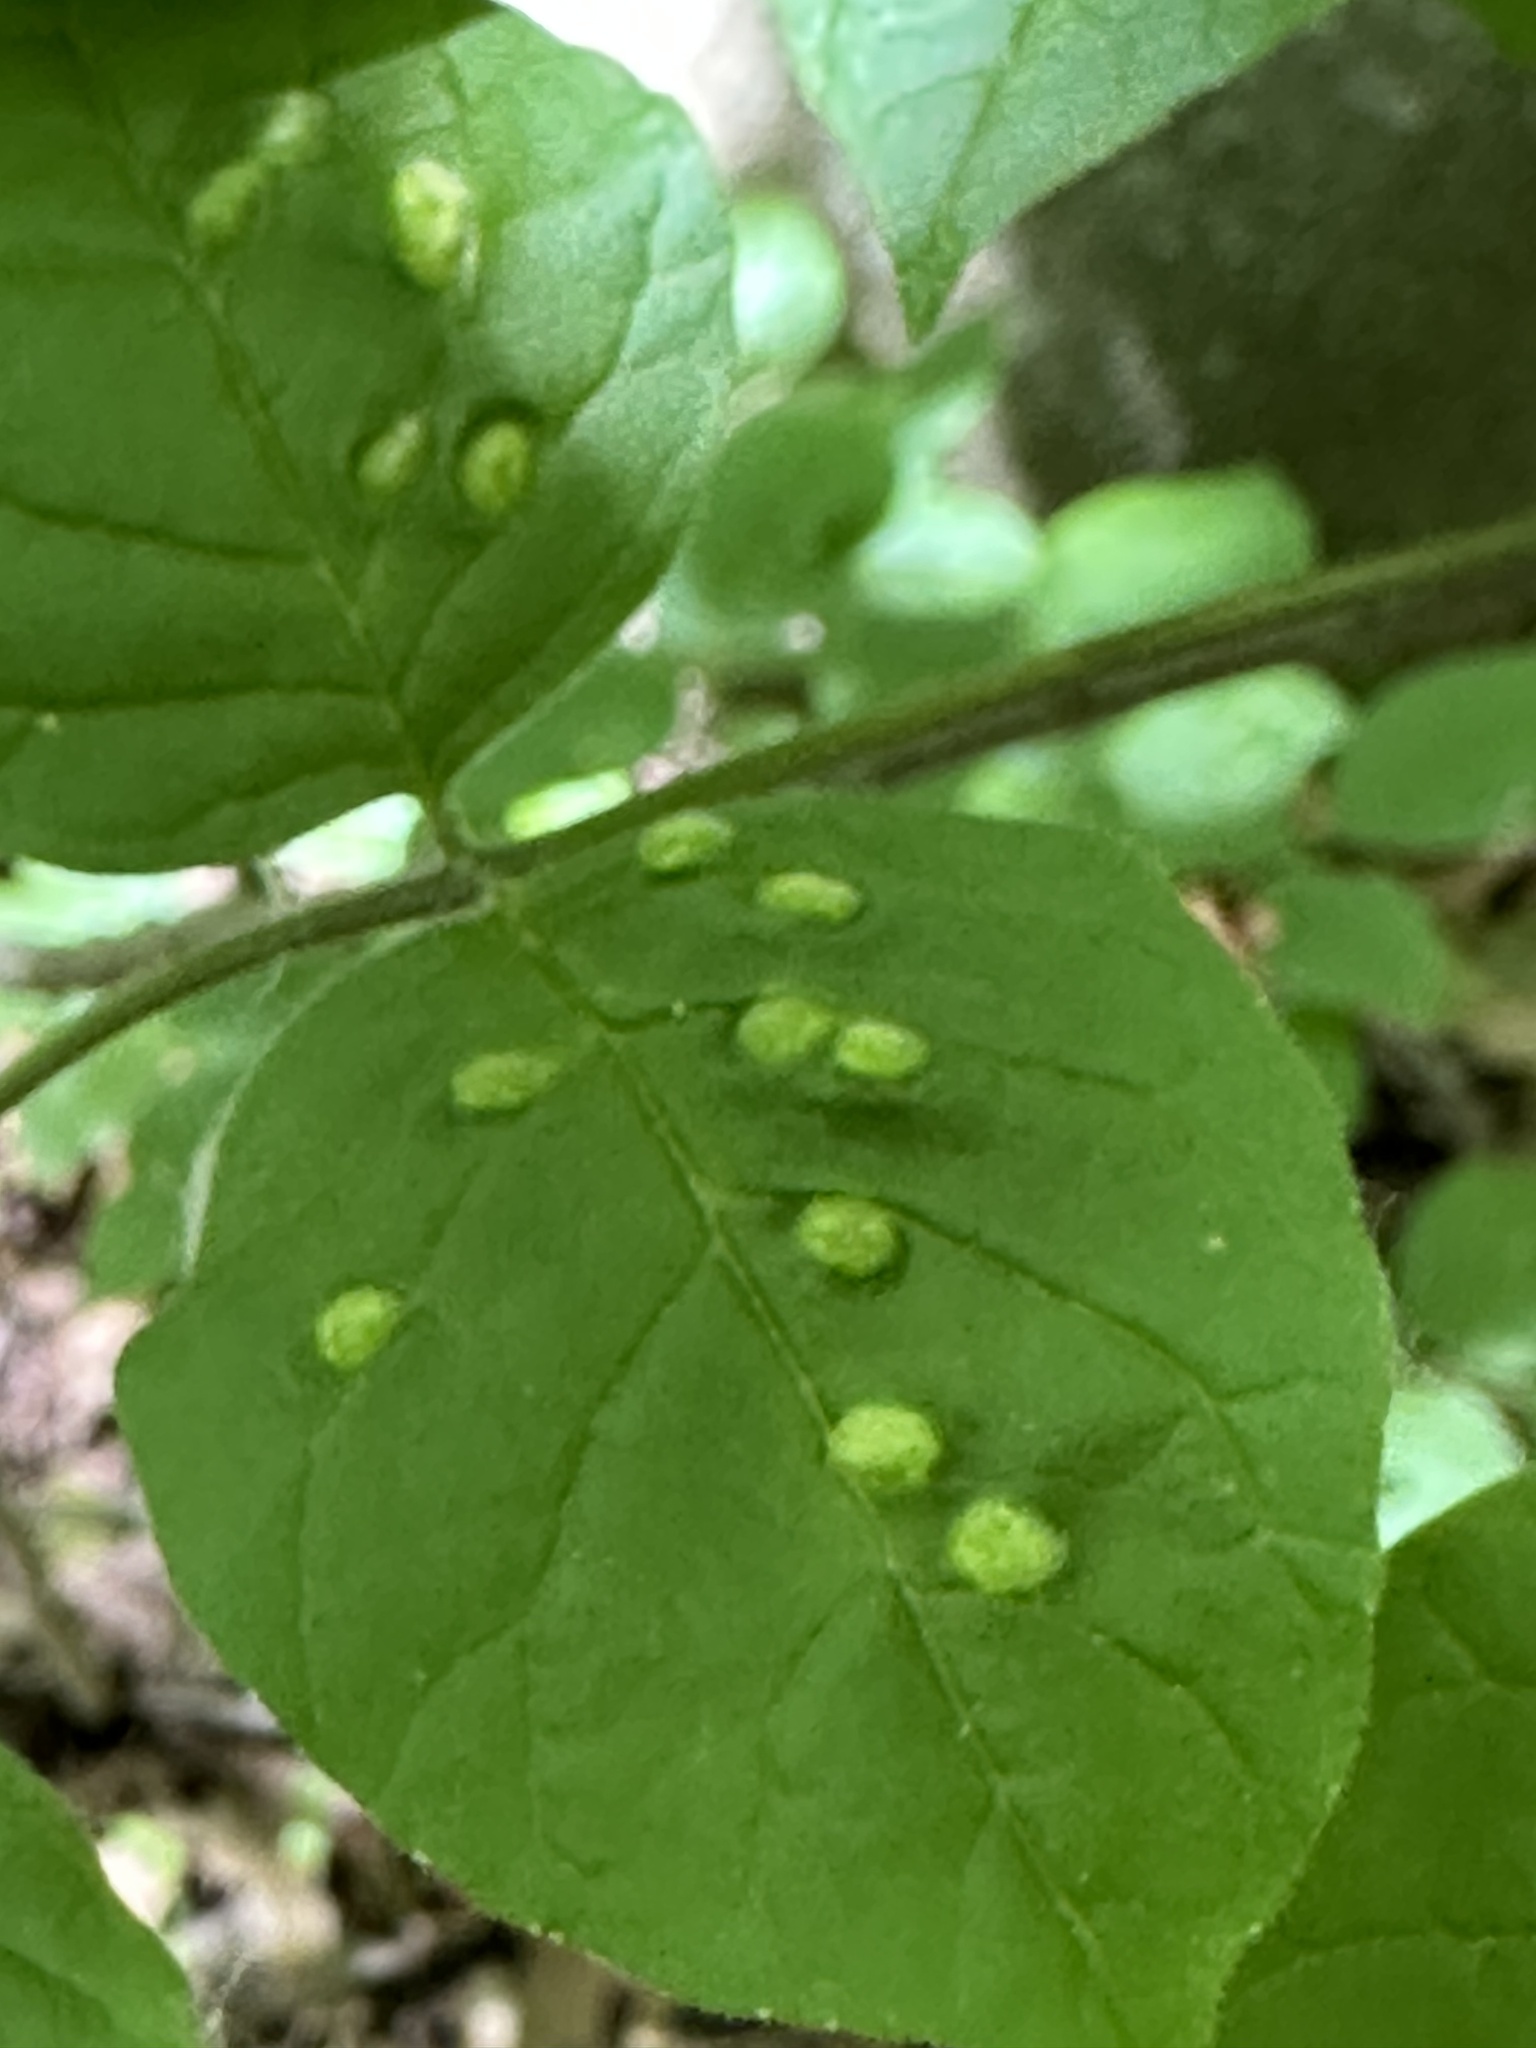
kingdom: Animalia
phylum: Arthropoda
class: Arachnida
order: Trombidiformes
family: Eriophyidae
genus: Aceria
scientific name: Aceria fraxinicola
